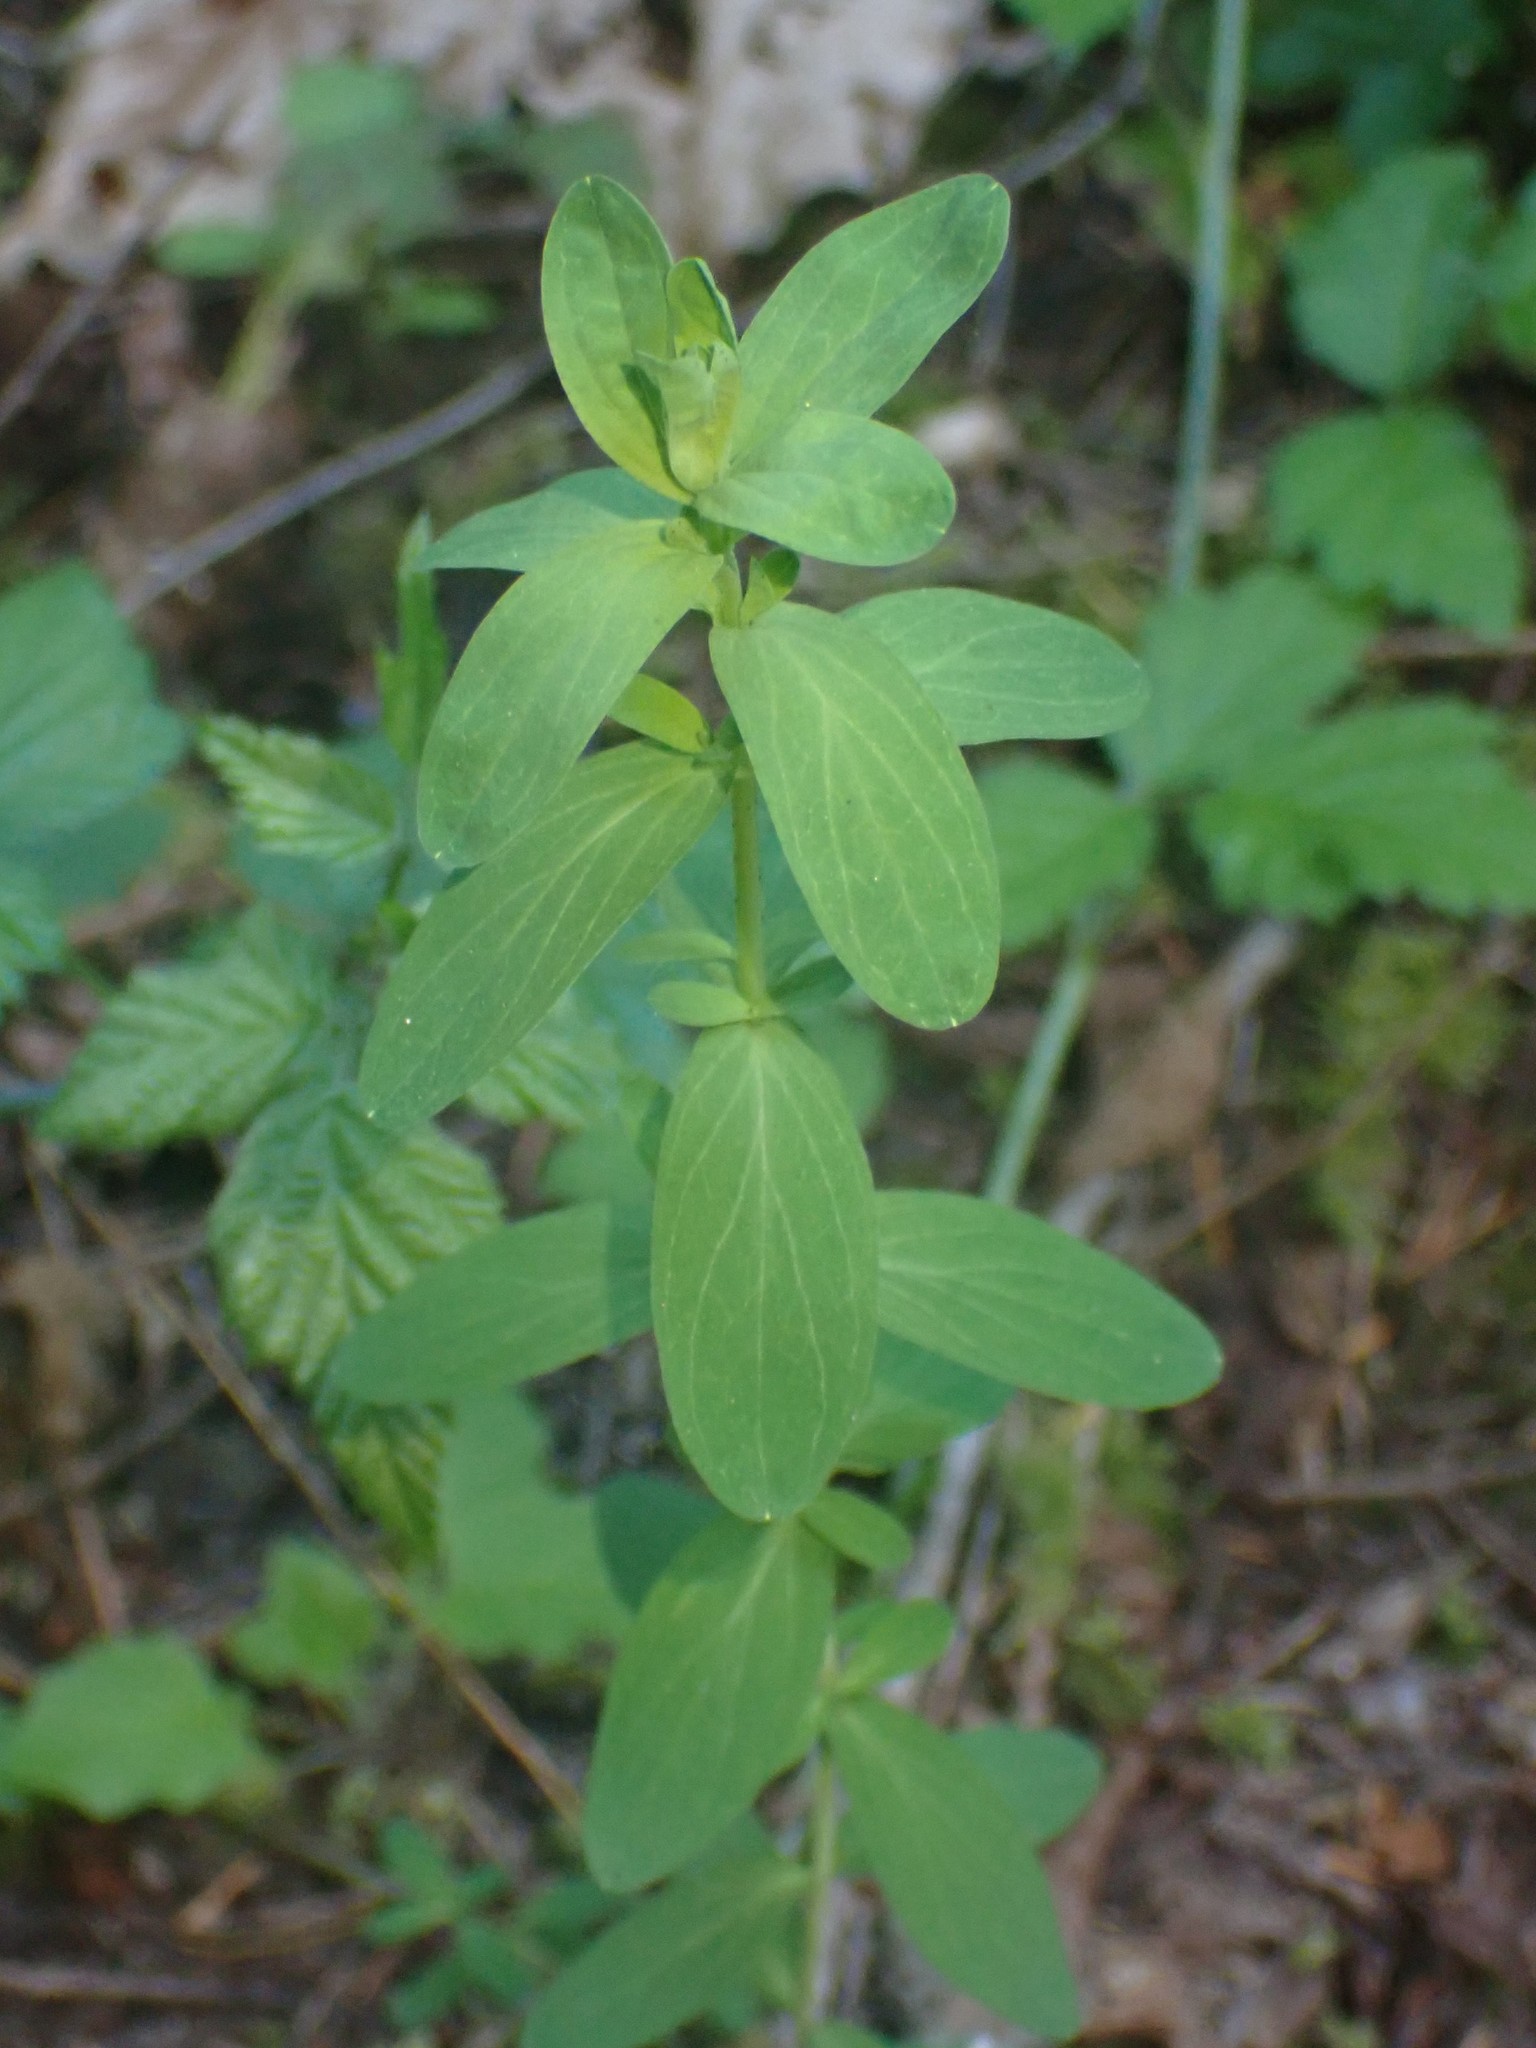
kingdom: Plantae
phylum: Tracheophyta
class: Magnoliopsida
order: Malpighiales
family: Hypericaceae
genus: Hypericum
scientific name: Hypericum perforatum
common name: Common st. johnswort
